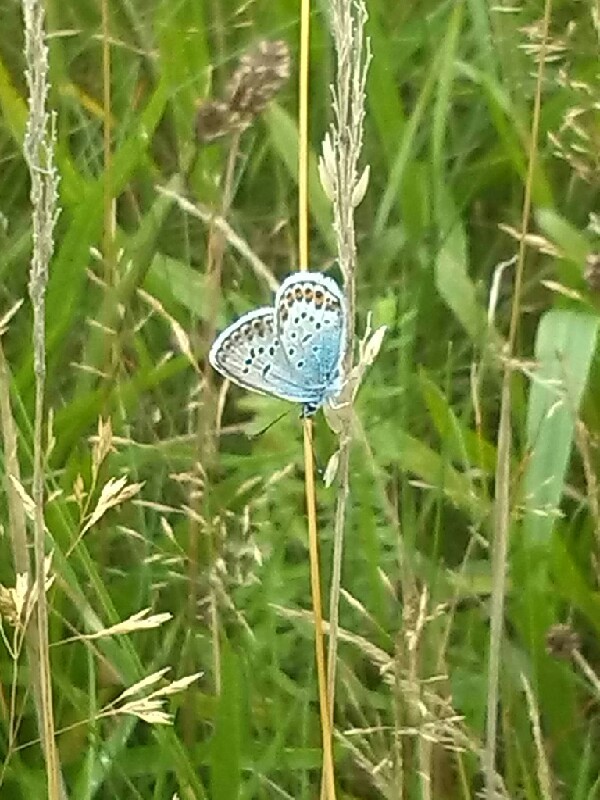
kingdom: Animalia
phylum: Arthropoda
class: Insecta
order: Lepidoptera
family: Lycaenidae
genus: Plebejus
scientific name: Plebejus argus
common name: Silver-studded blue
